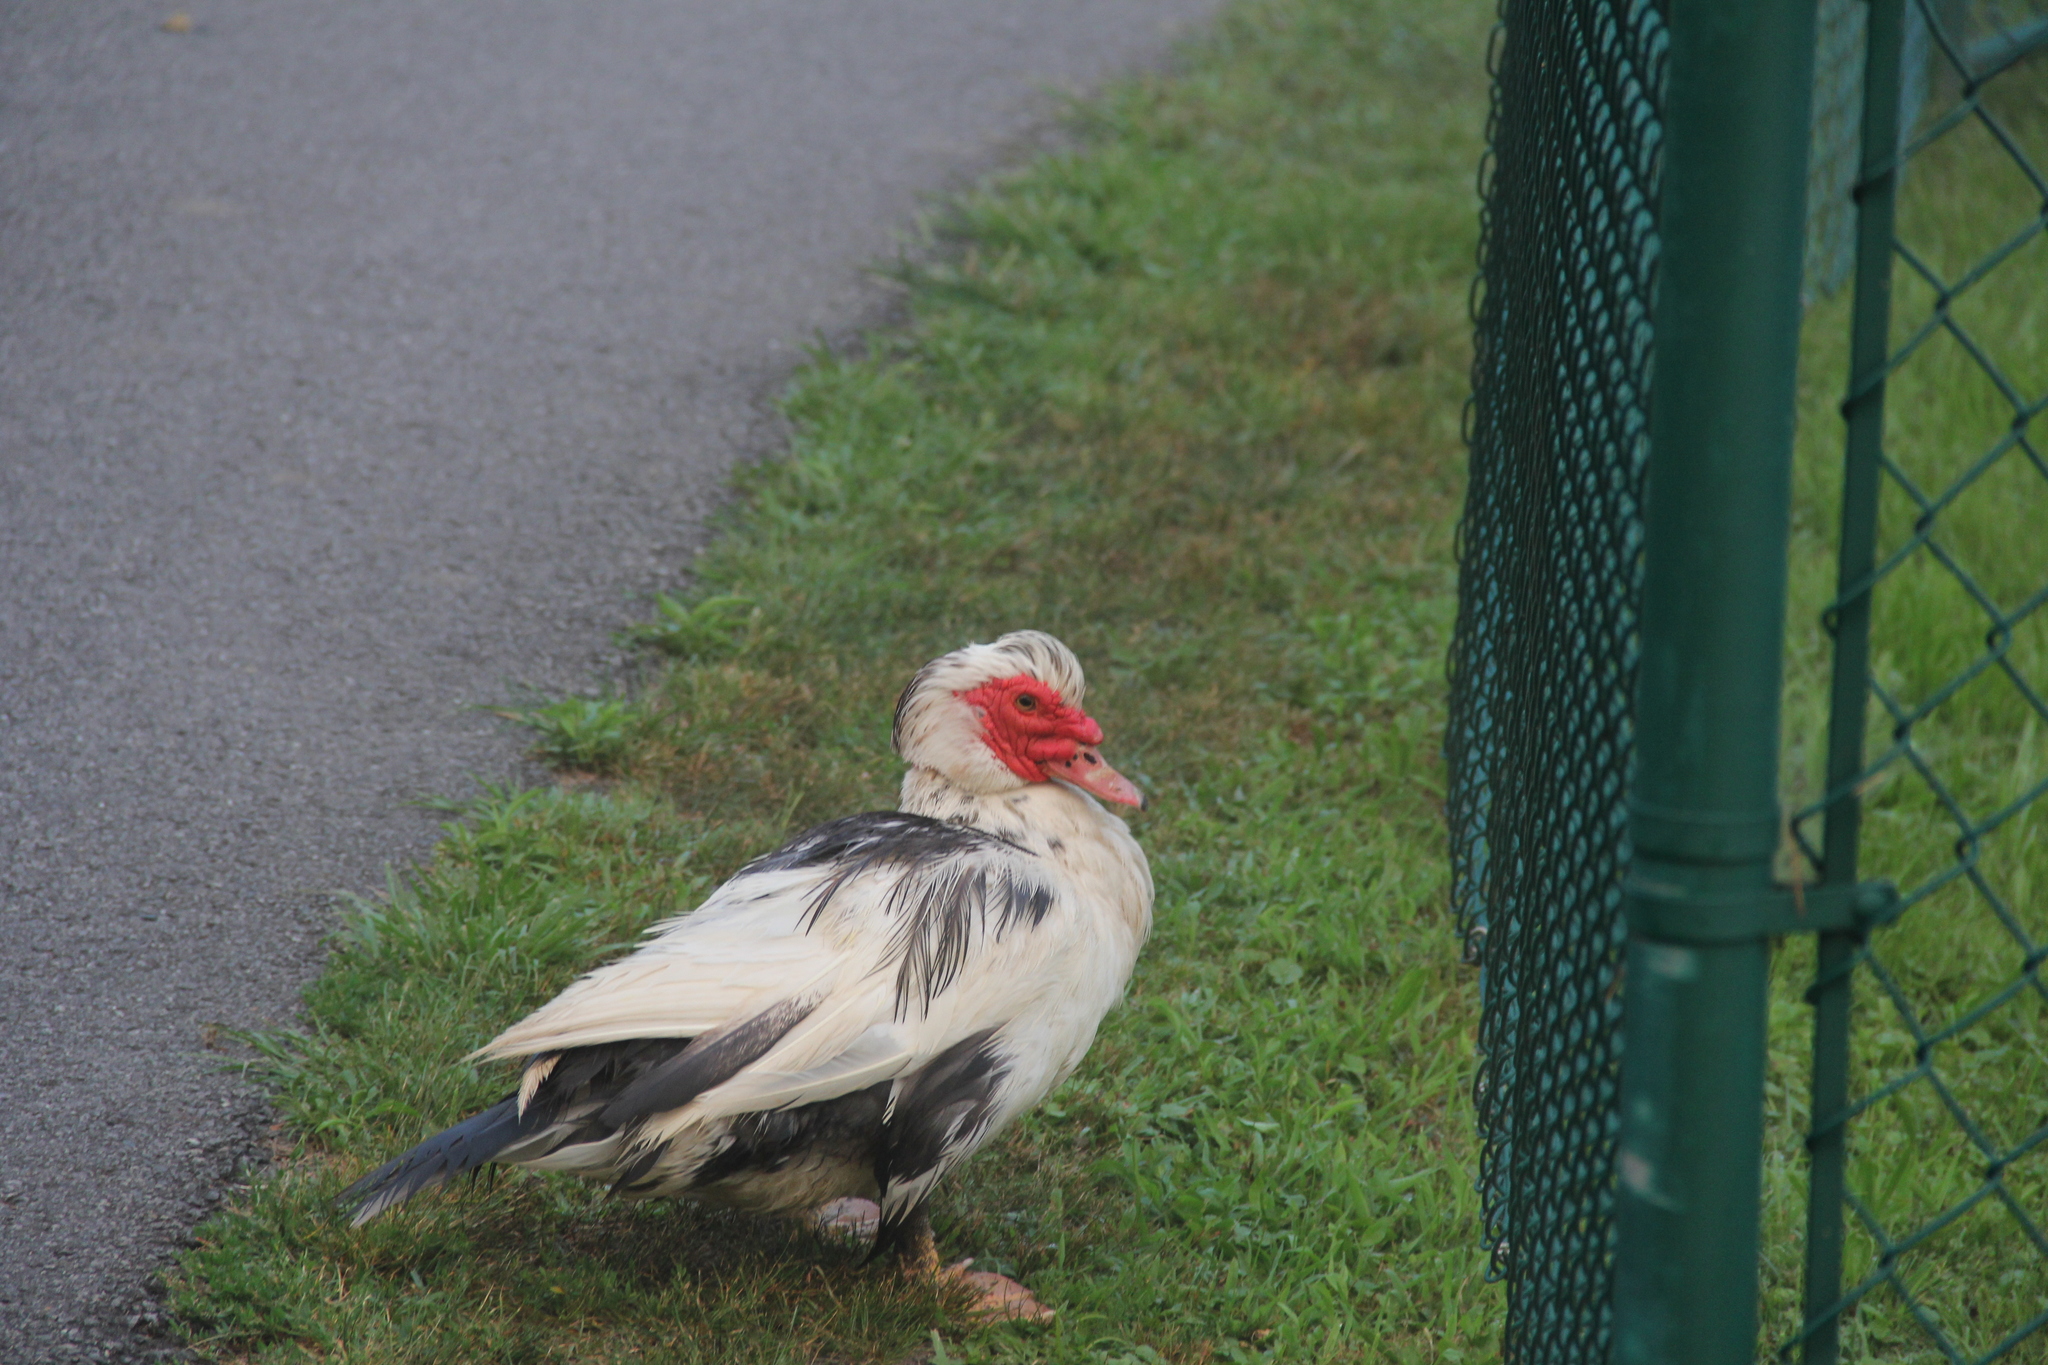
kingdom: Animalia
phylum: Chordata
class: Aves
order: Anseriformes
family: Anatidae
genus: Cairina
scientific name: Cairina moschata
